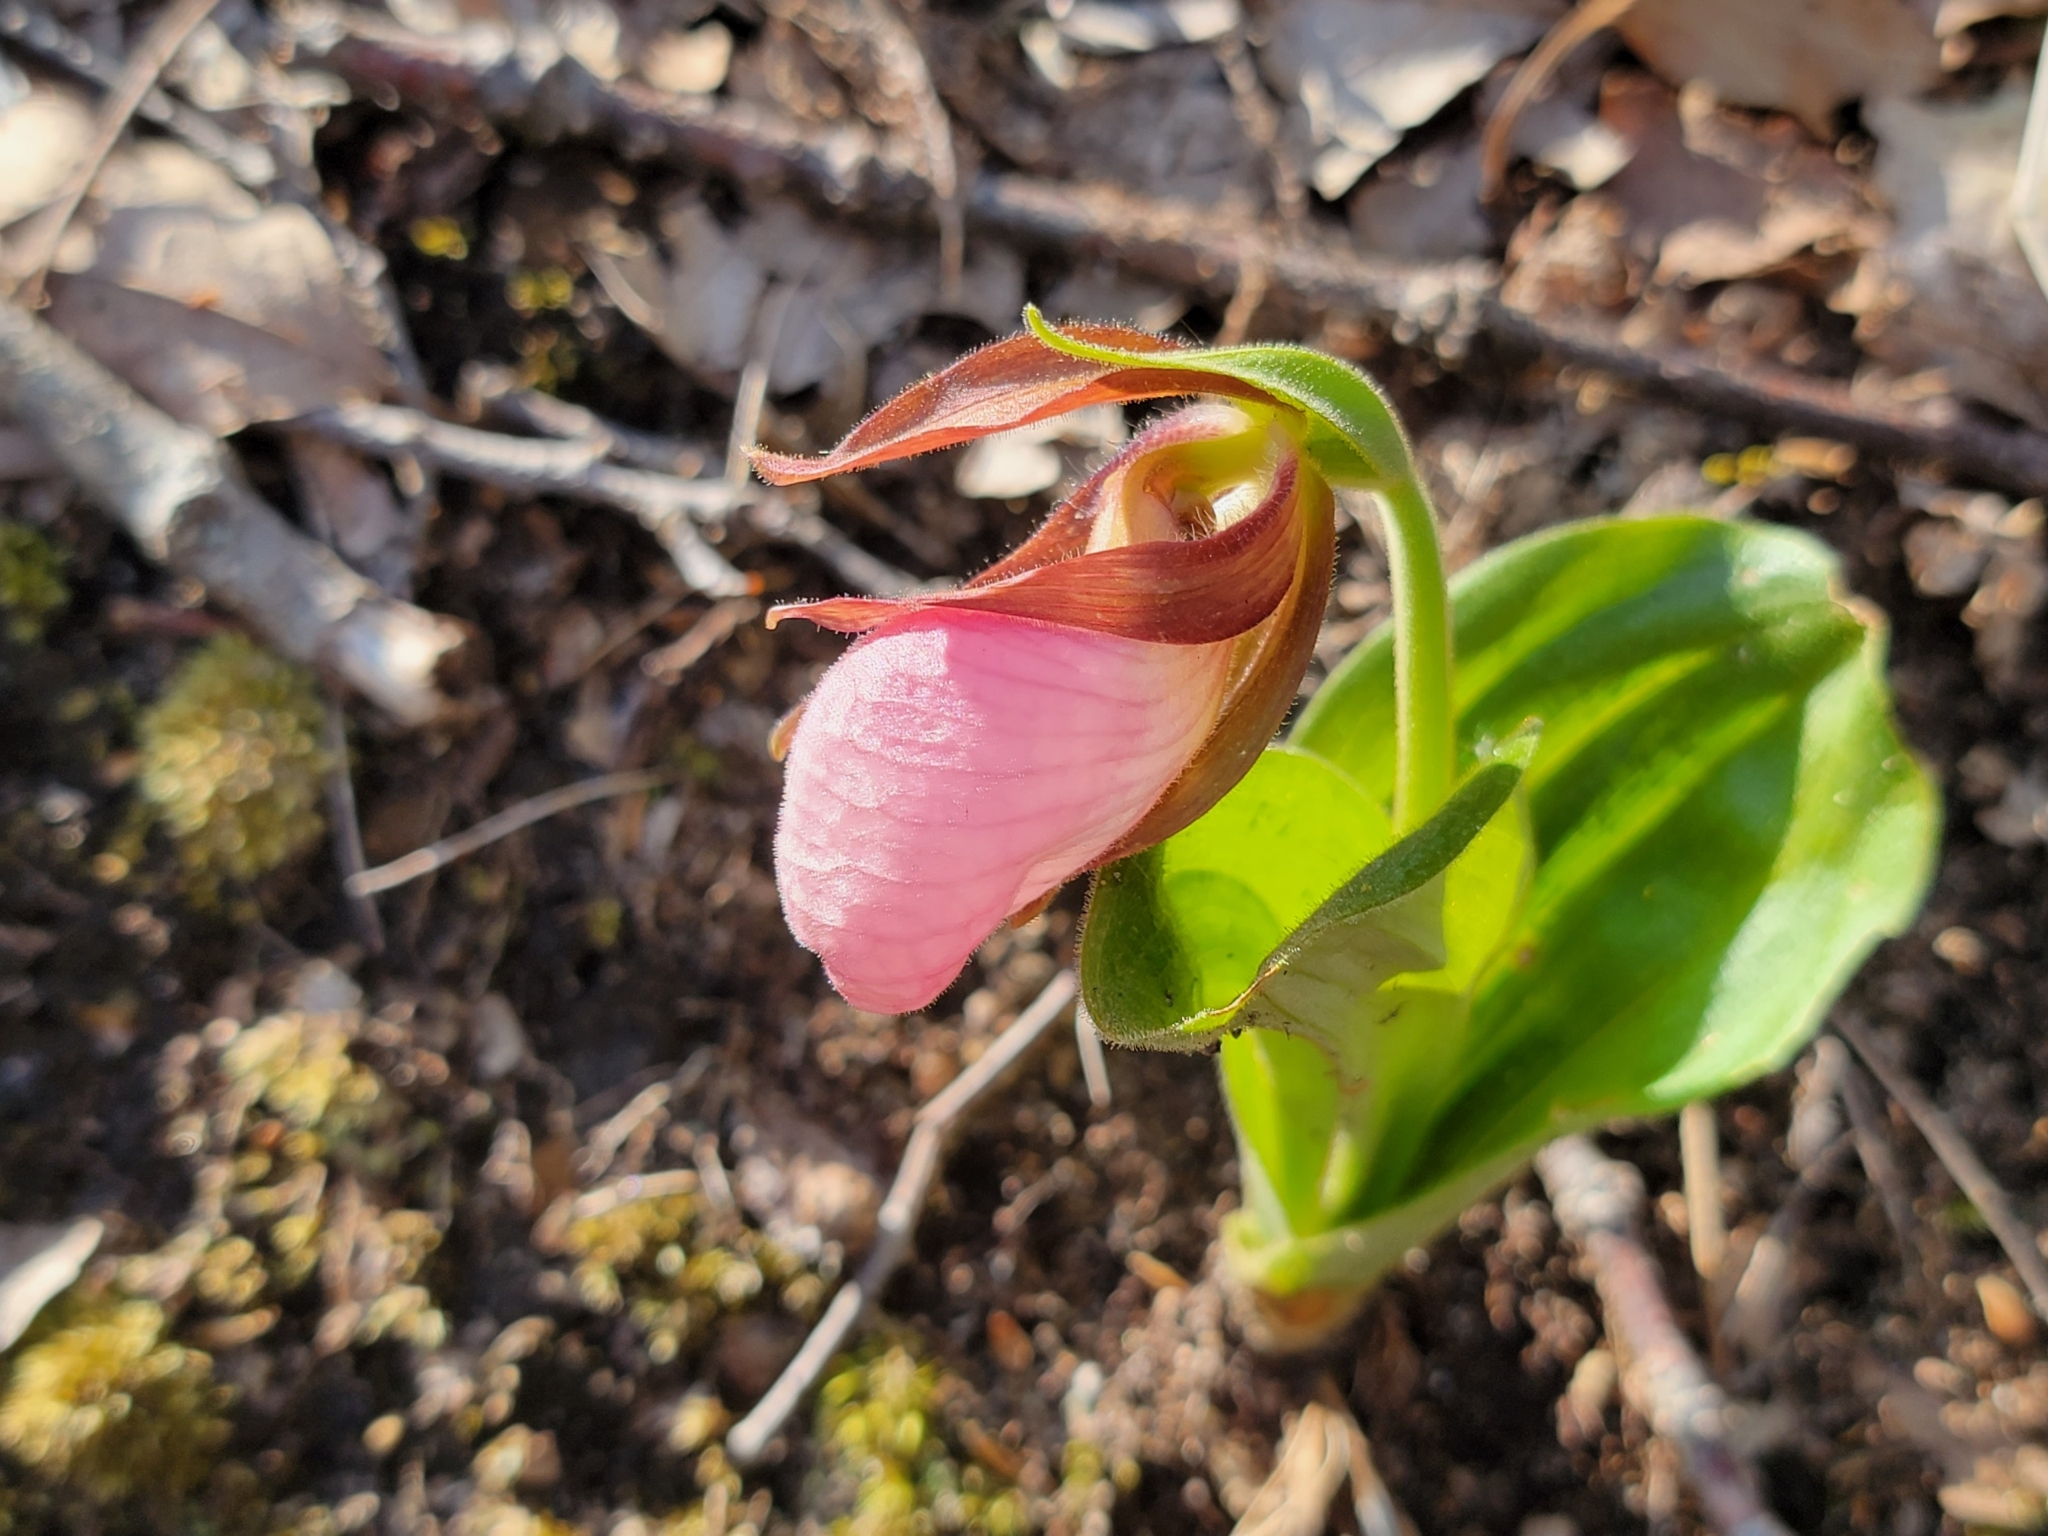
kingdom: Plantae
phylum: Tracheophyta
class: Liliopsida
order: Asparagales
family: Orchidaceae
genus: Cypripedium
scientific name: Cypripedium acaule
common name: Pink lady's-slipper
